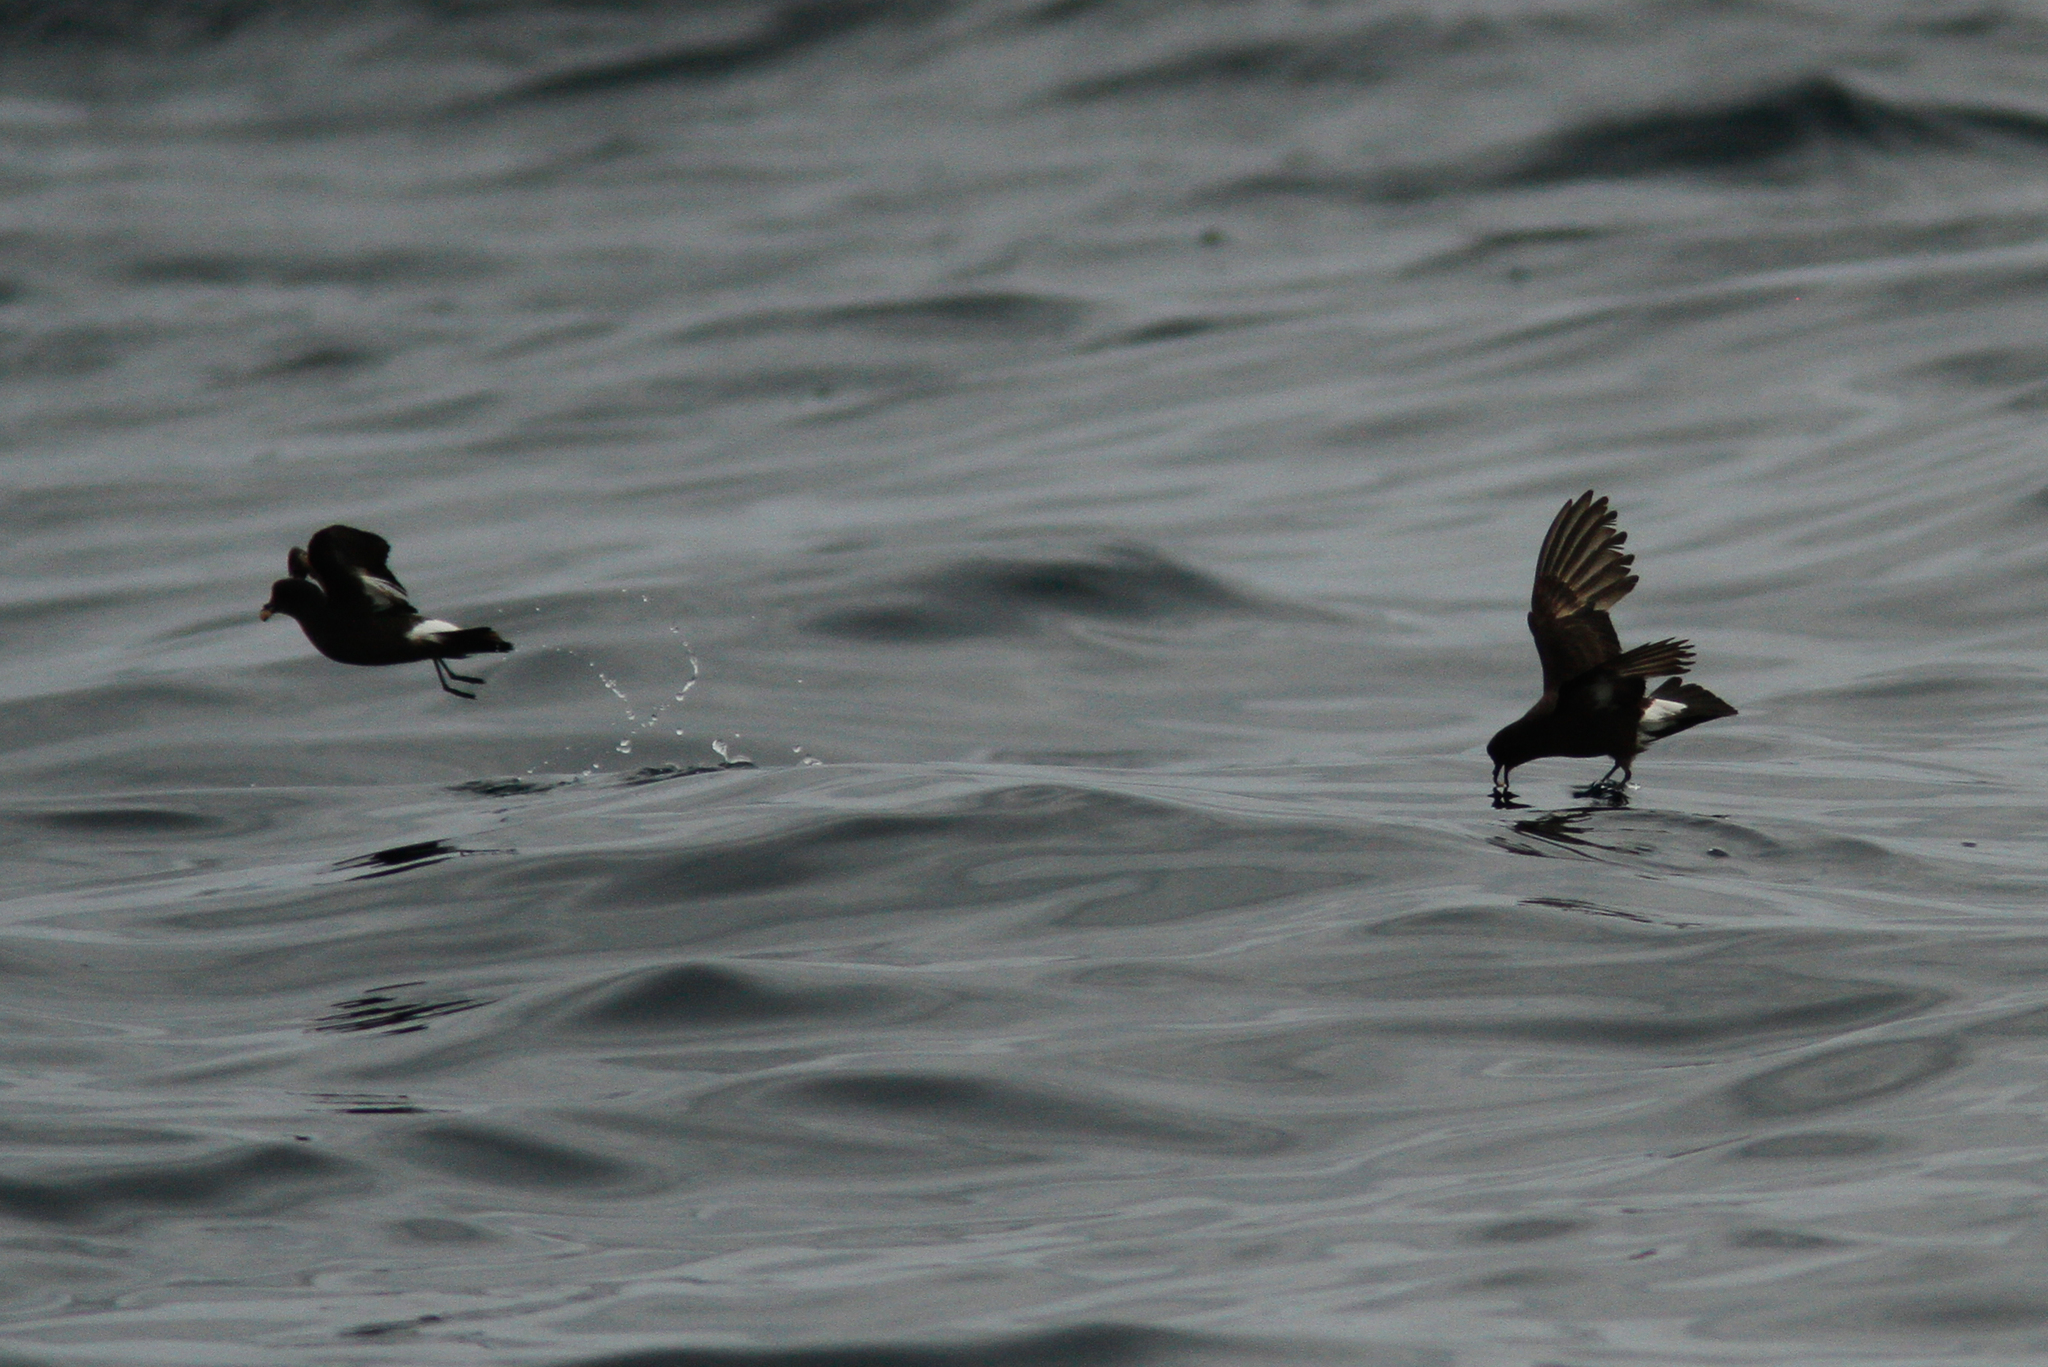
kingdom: Animalia
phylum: Chordata
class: Aves
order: Procellariiformes
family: Hydrobatidae
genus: Hydrobates
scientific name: Hydrobates pelagicus
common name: European storm-petrel
